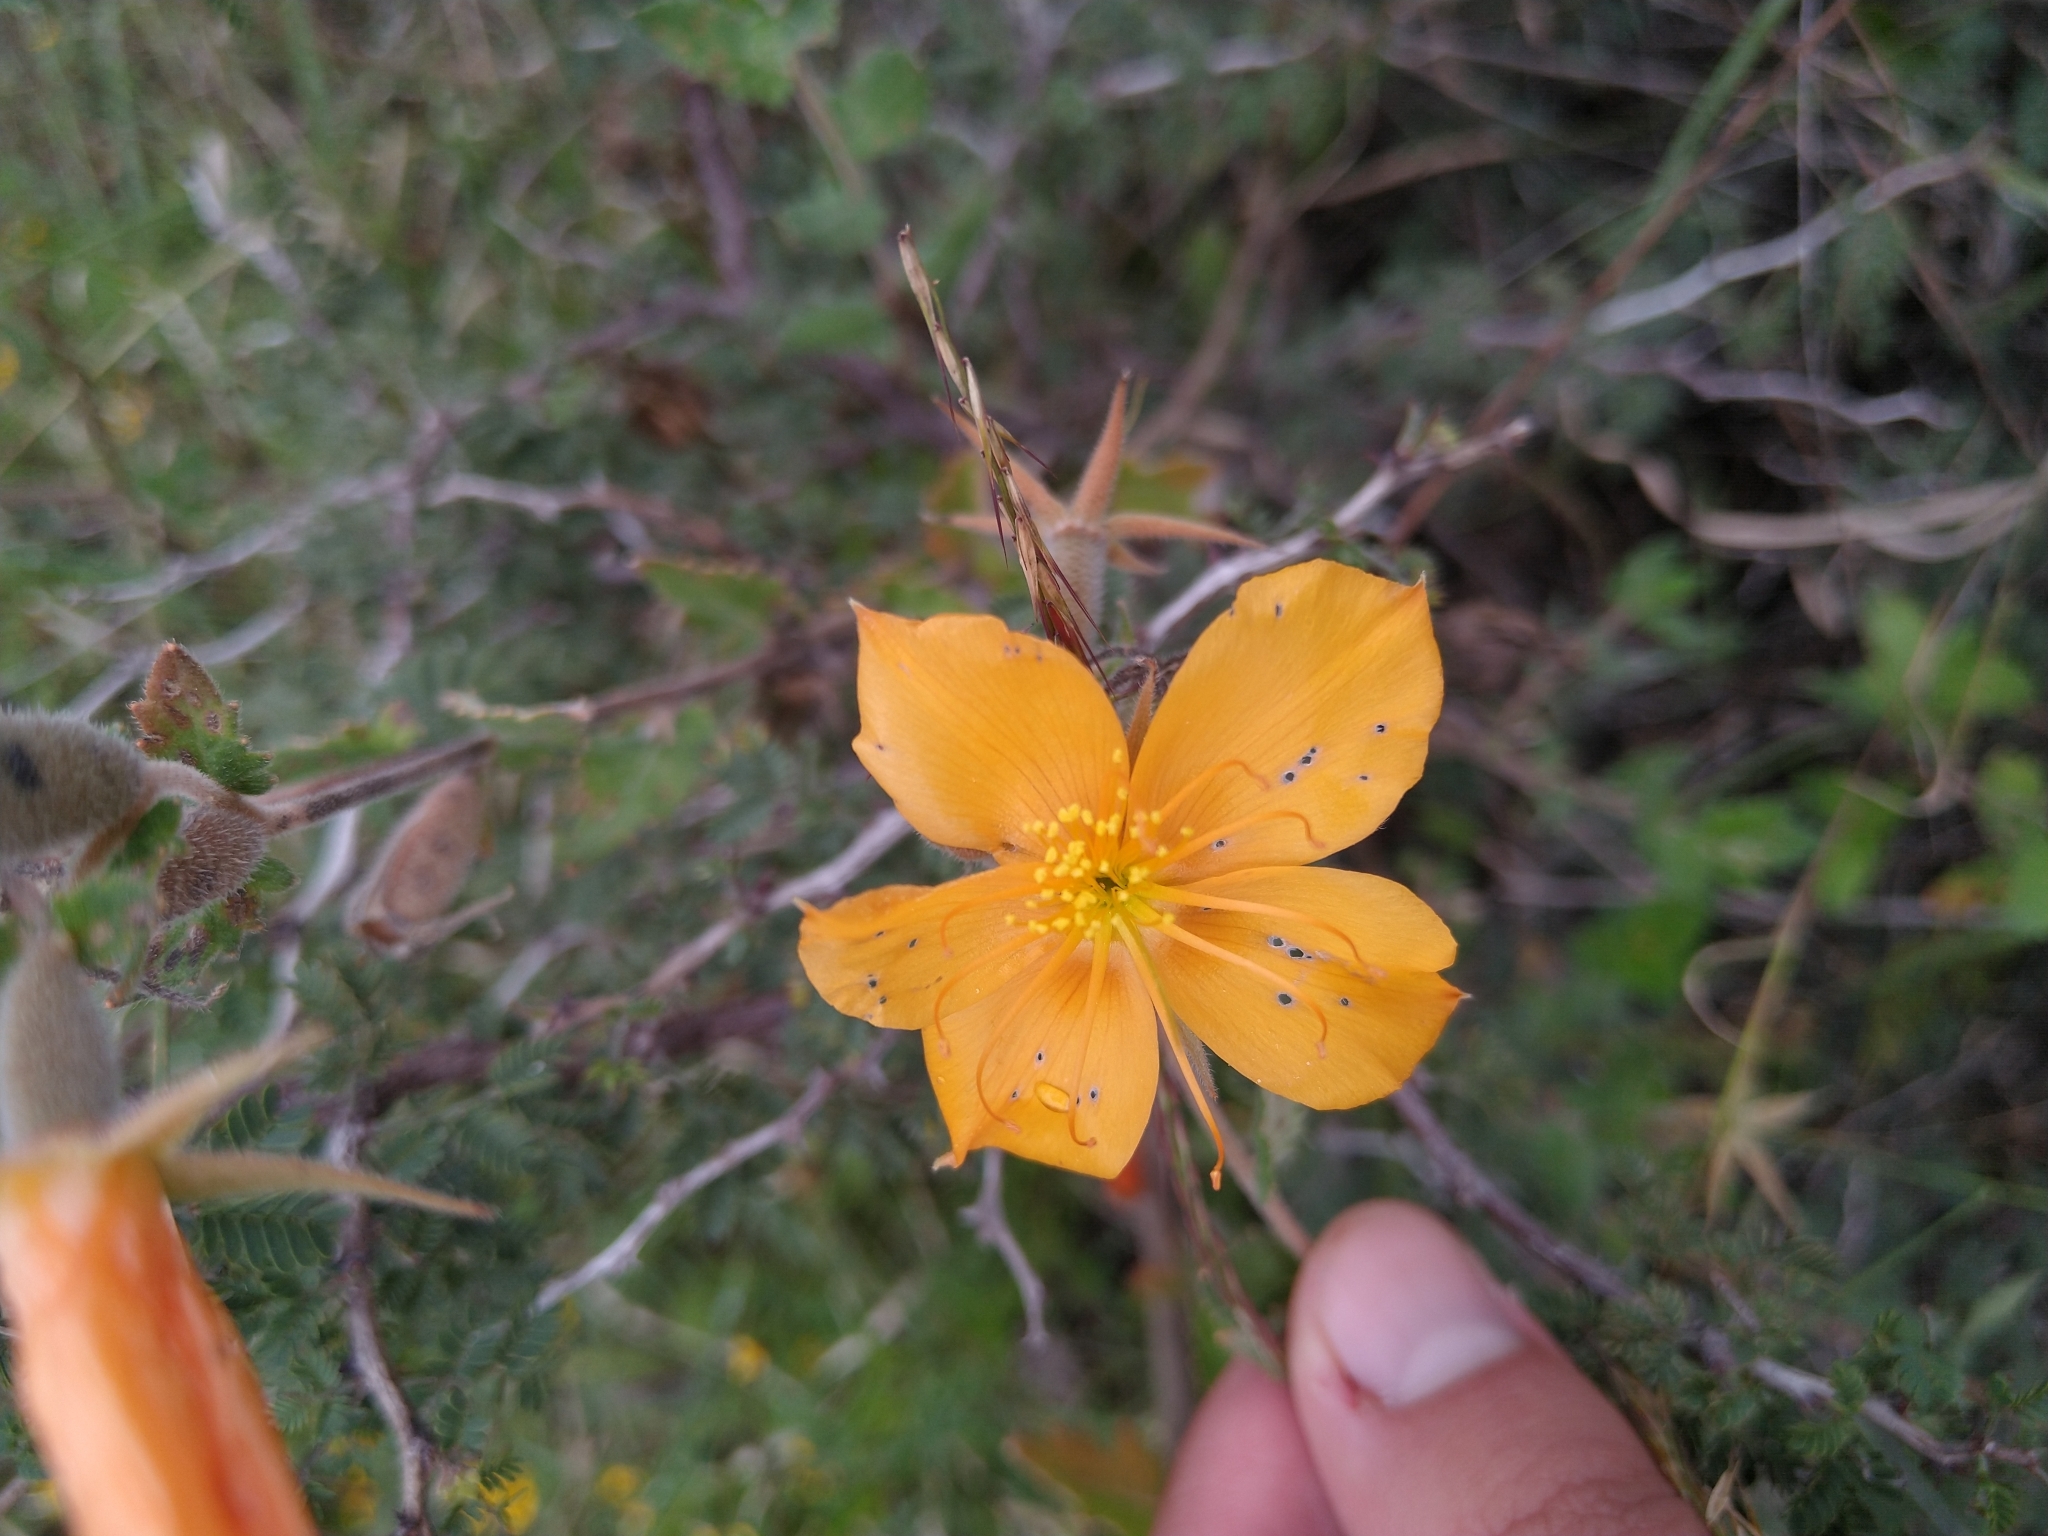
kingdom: Plantae
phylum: Tracheophyta
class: Magnoliopsida
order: Cornales
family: Loasaceae
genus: Mentzelia
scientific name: Mentzelia hispida
